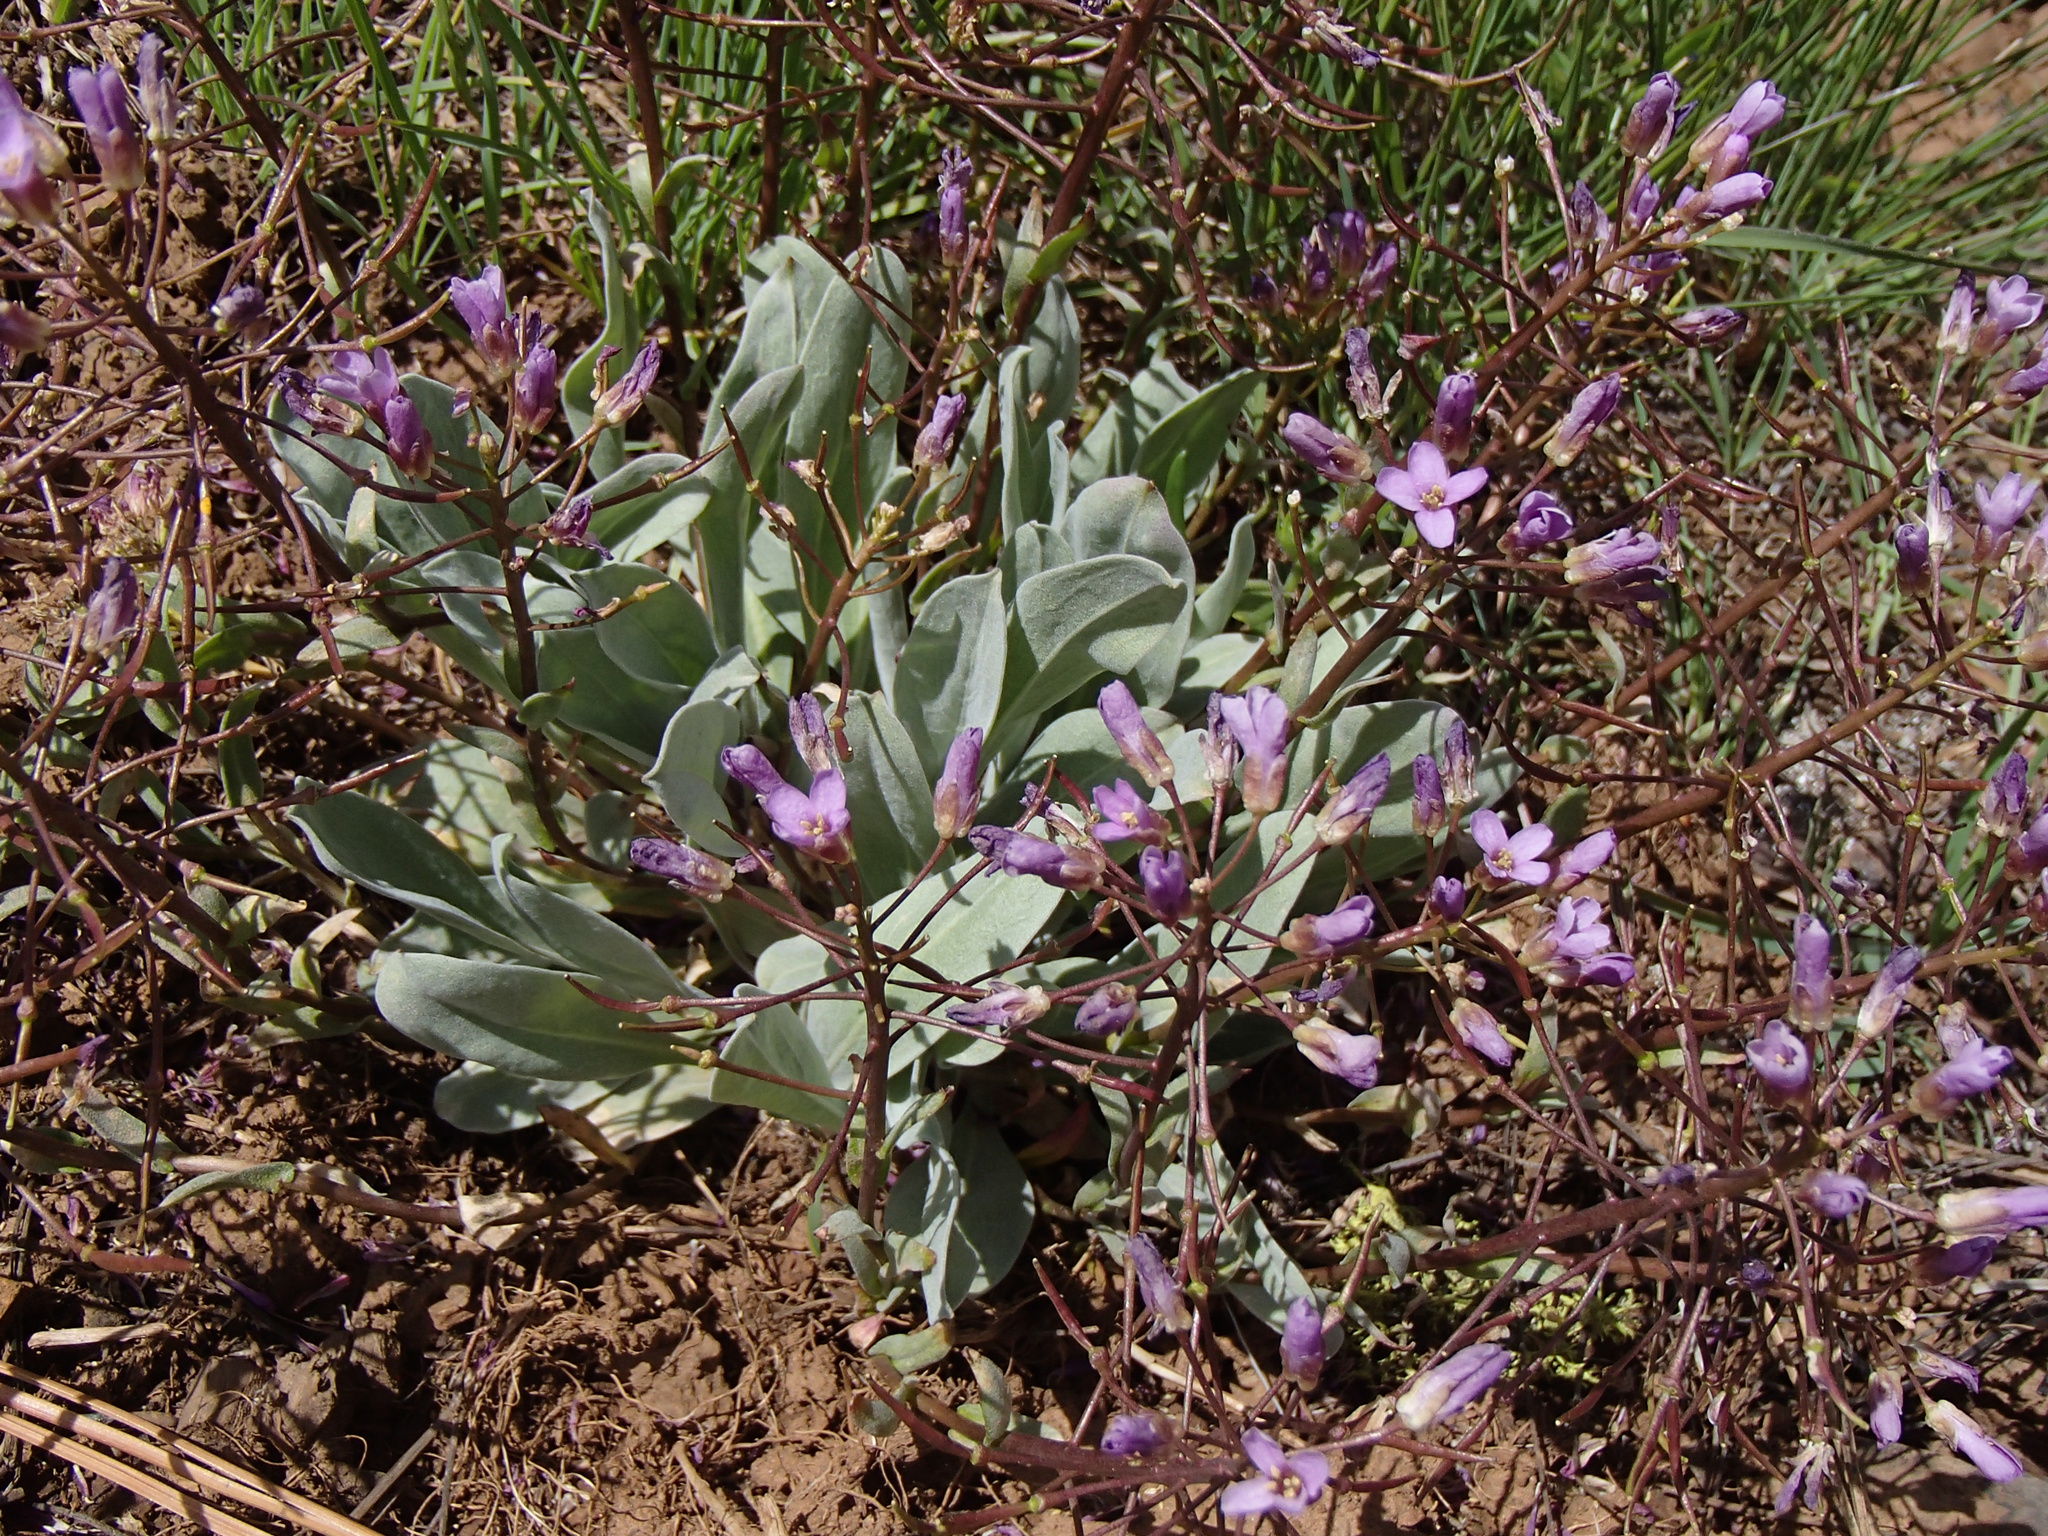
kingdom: Plantae
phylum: Tracheophyta
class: Magnoliopsida
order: Brassicales
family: Brassicaceae
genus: Phoenicaulis
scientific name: Phoenicaulis cheiranthoides
